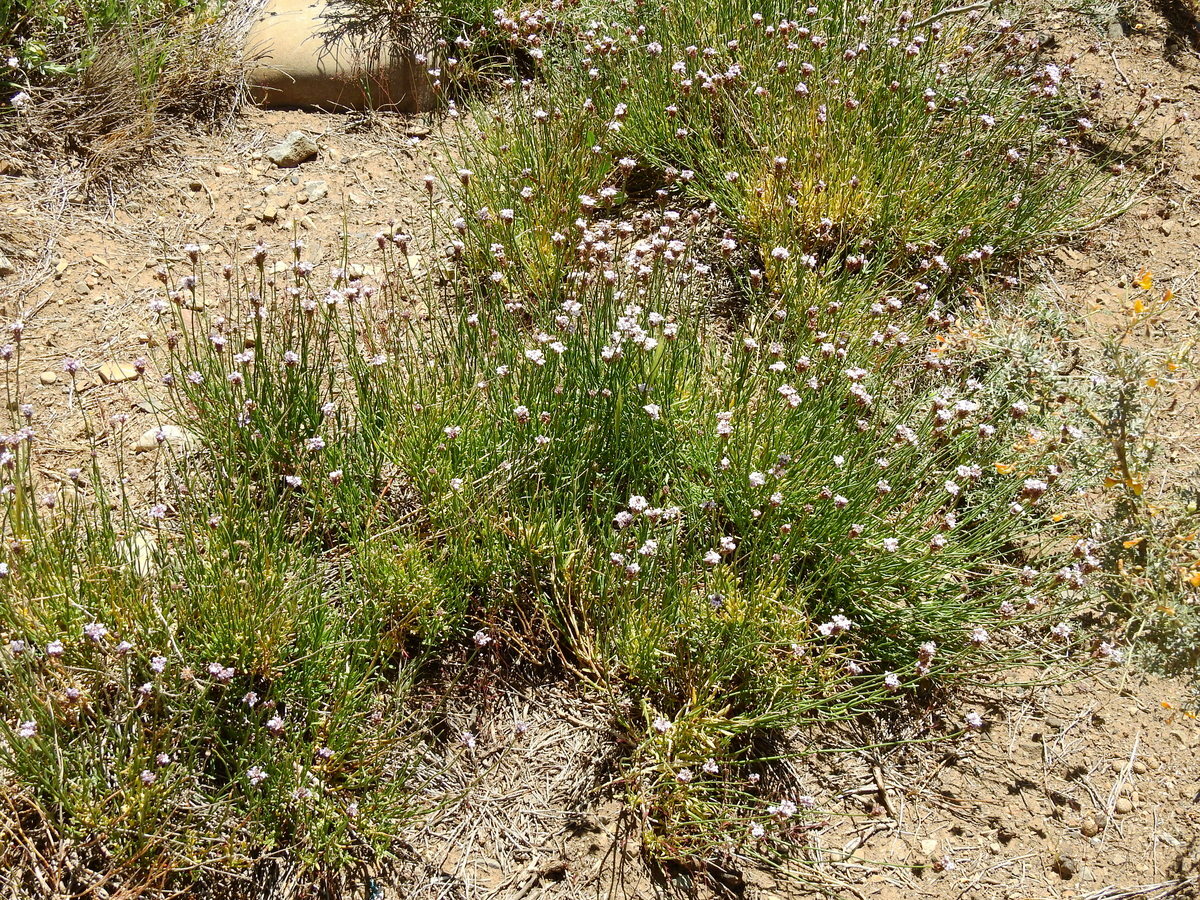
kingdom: Plantae
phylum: Tracheophyta
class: Magnoliopsida
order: Lamiales
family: Verbenaceae
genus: Junellia
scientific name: Junellia spathulata
